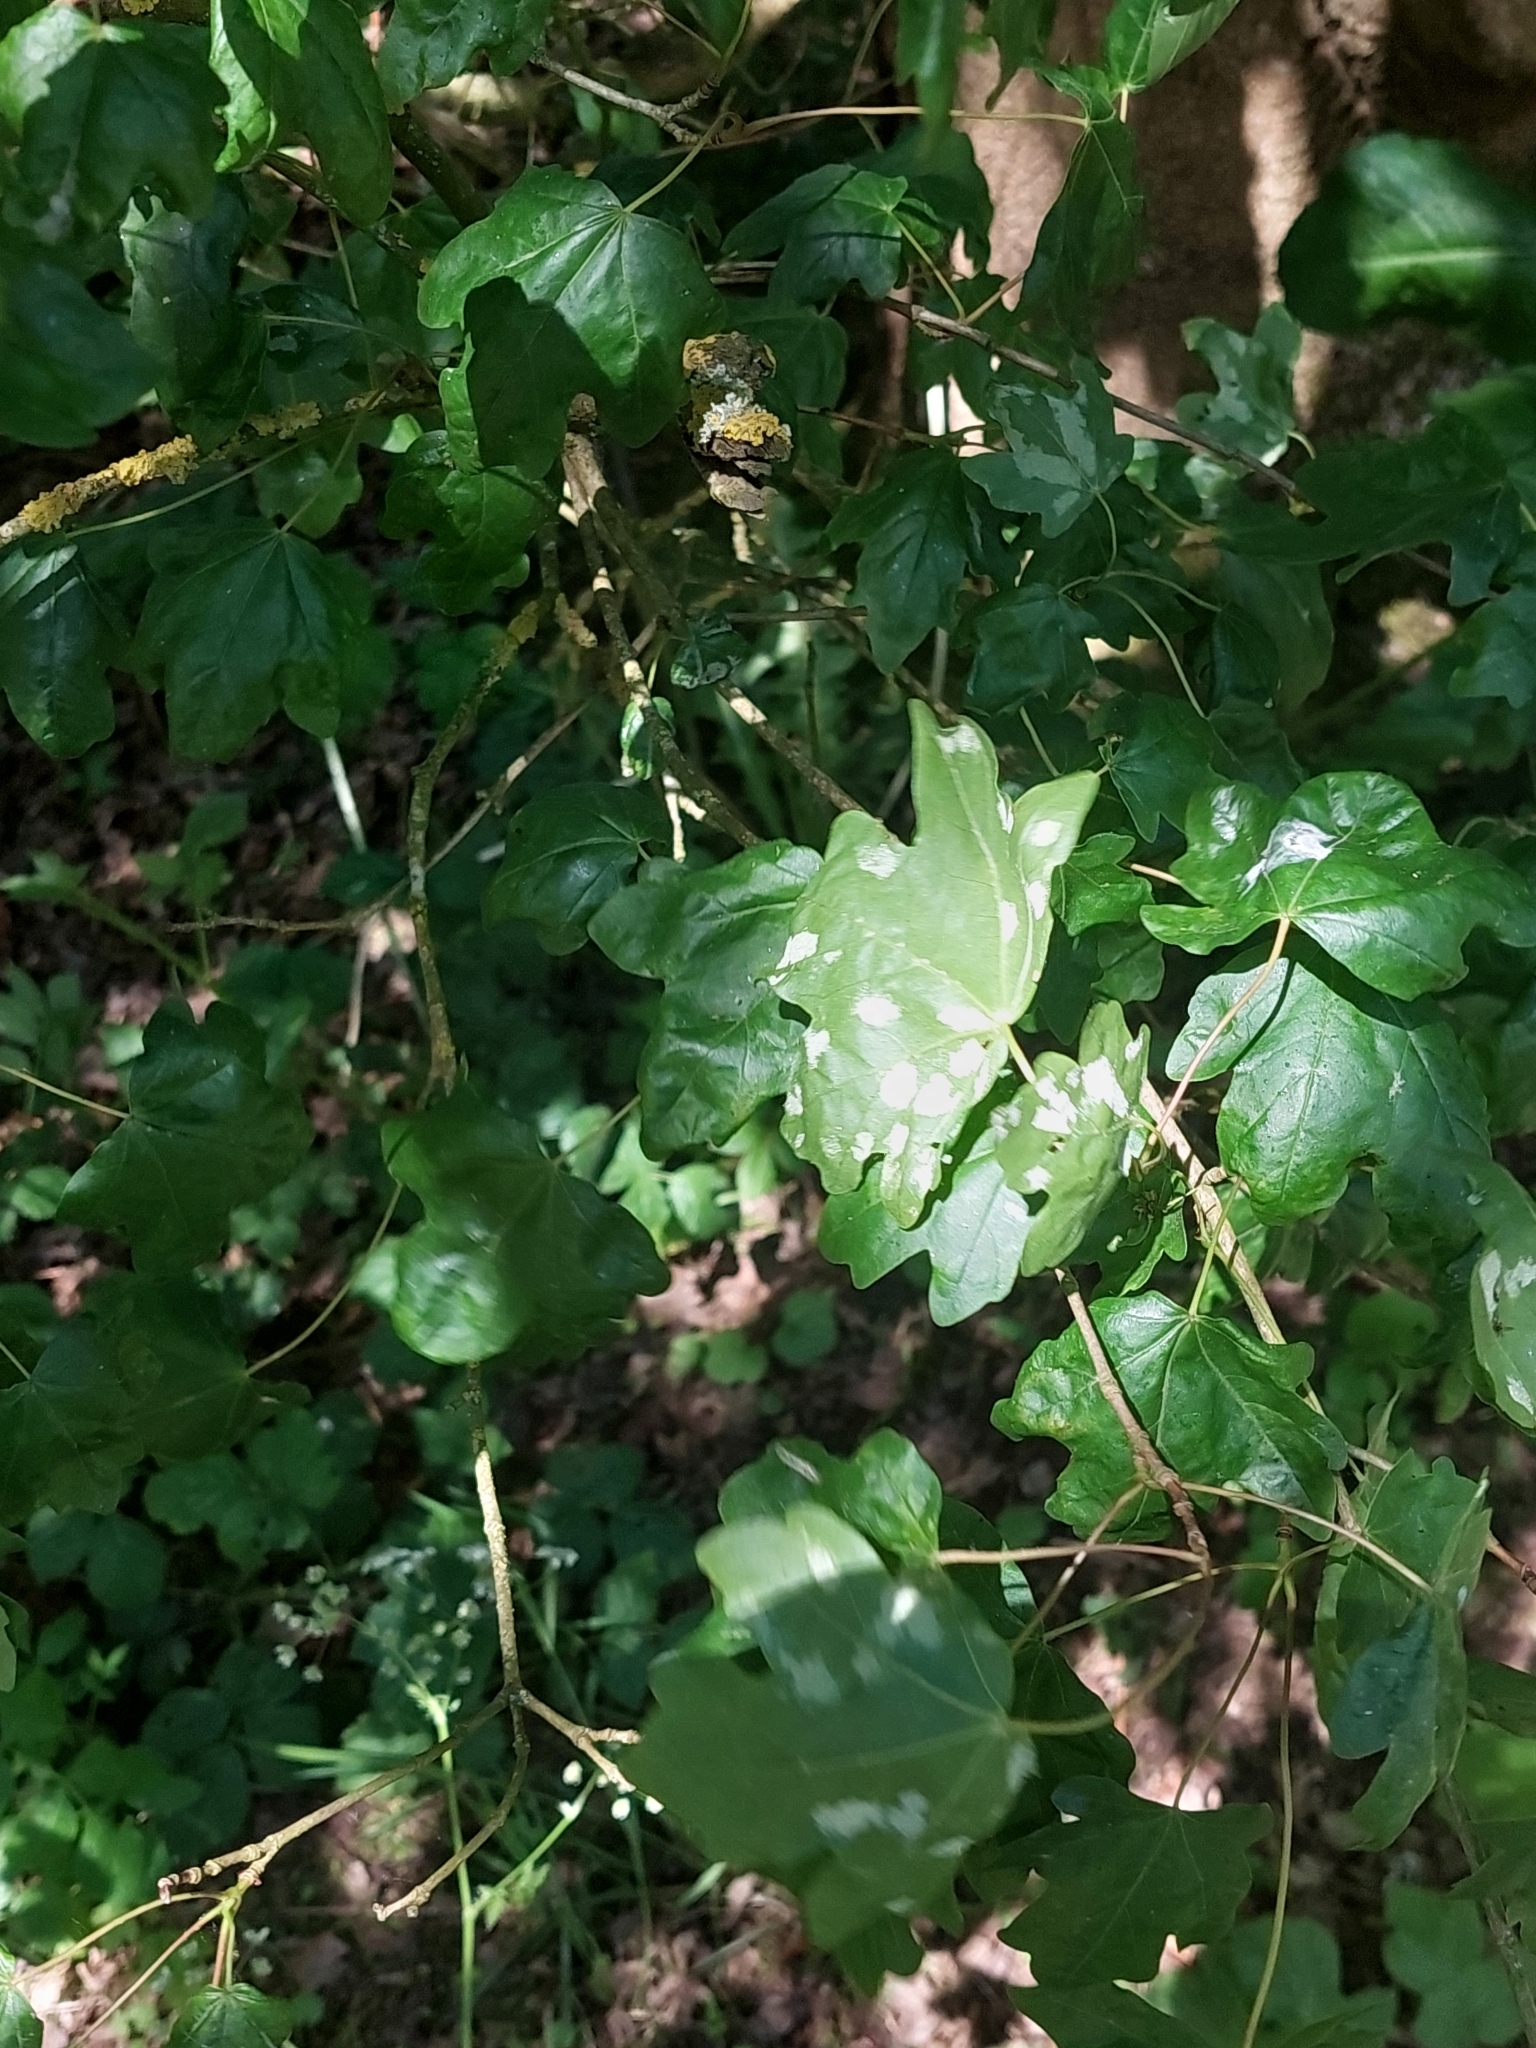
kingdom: Plantae
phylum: Tracheophyta
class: Magnoliopsida
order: Sapindales
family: Sapindaceae
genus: Acer
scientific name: Acer campestre
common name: Field maple
